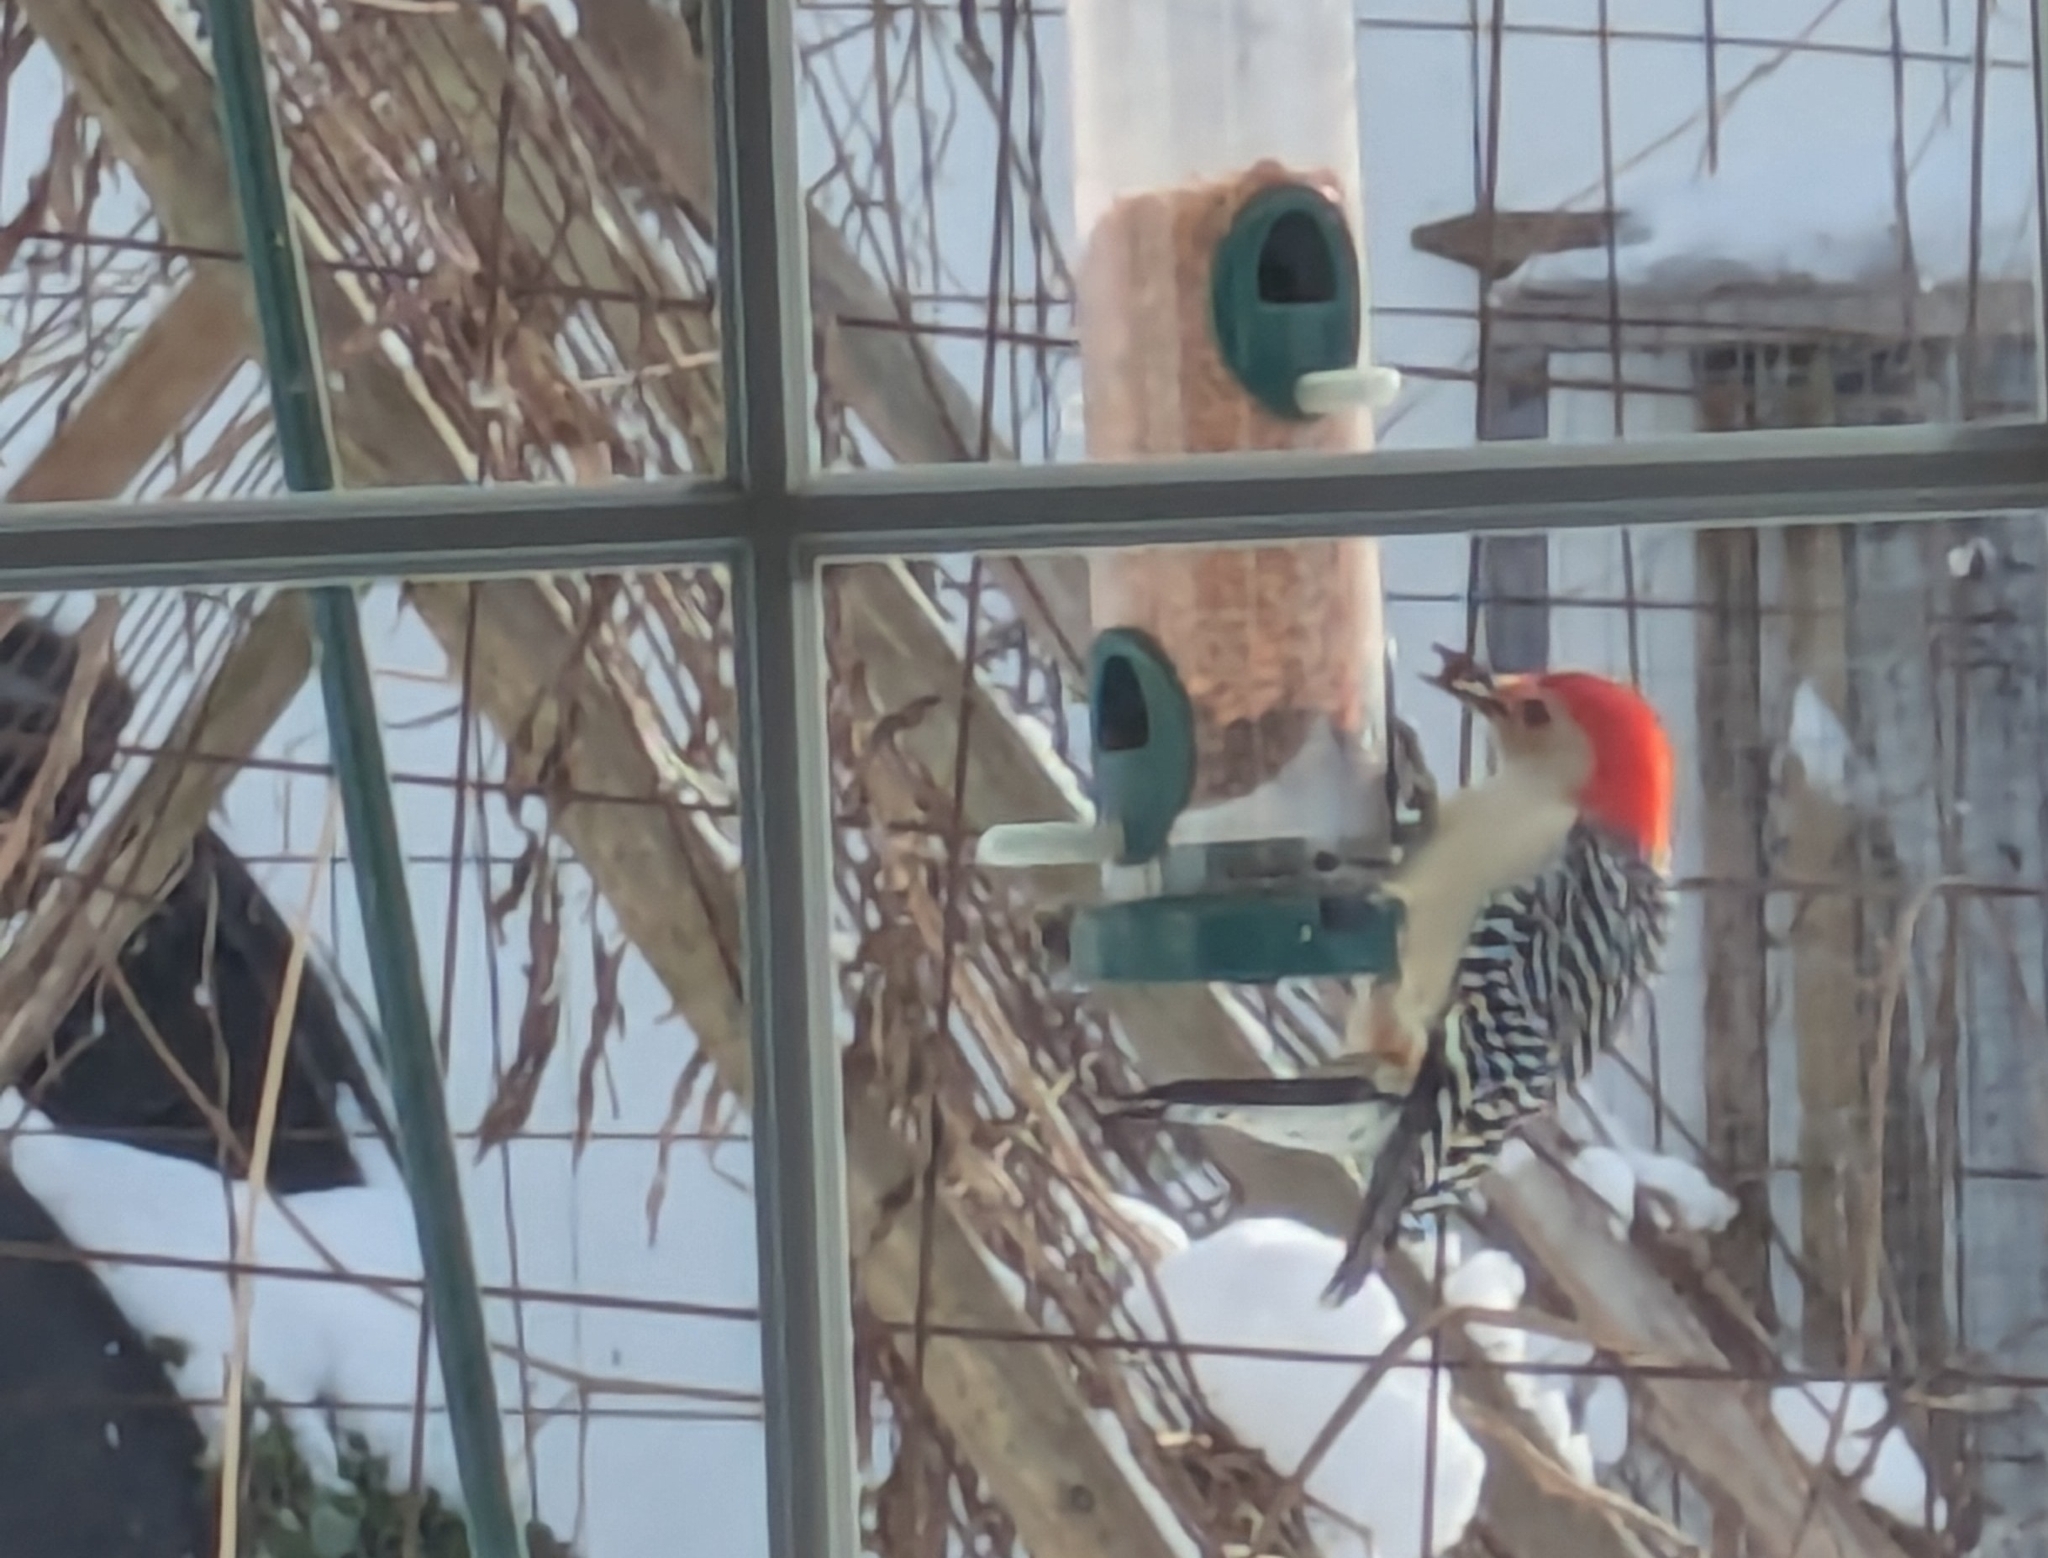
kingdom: Animalia
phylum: Chordata
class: Aves
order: Piciformes
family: Picidae
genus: Melanerpes
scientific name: Melanerpes carolinus
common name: Red-bellied woodpecker
